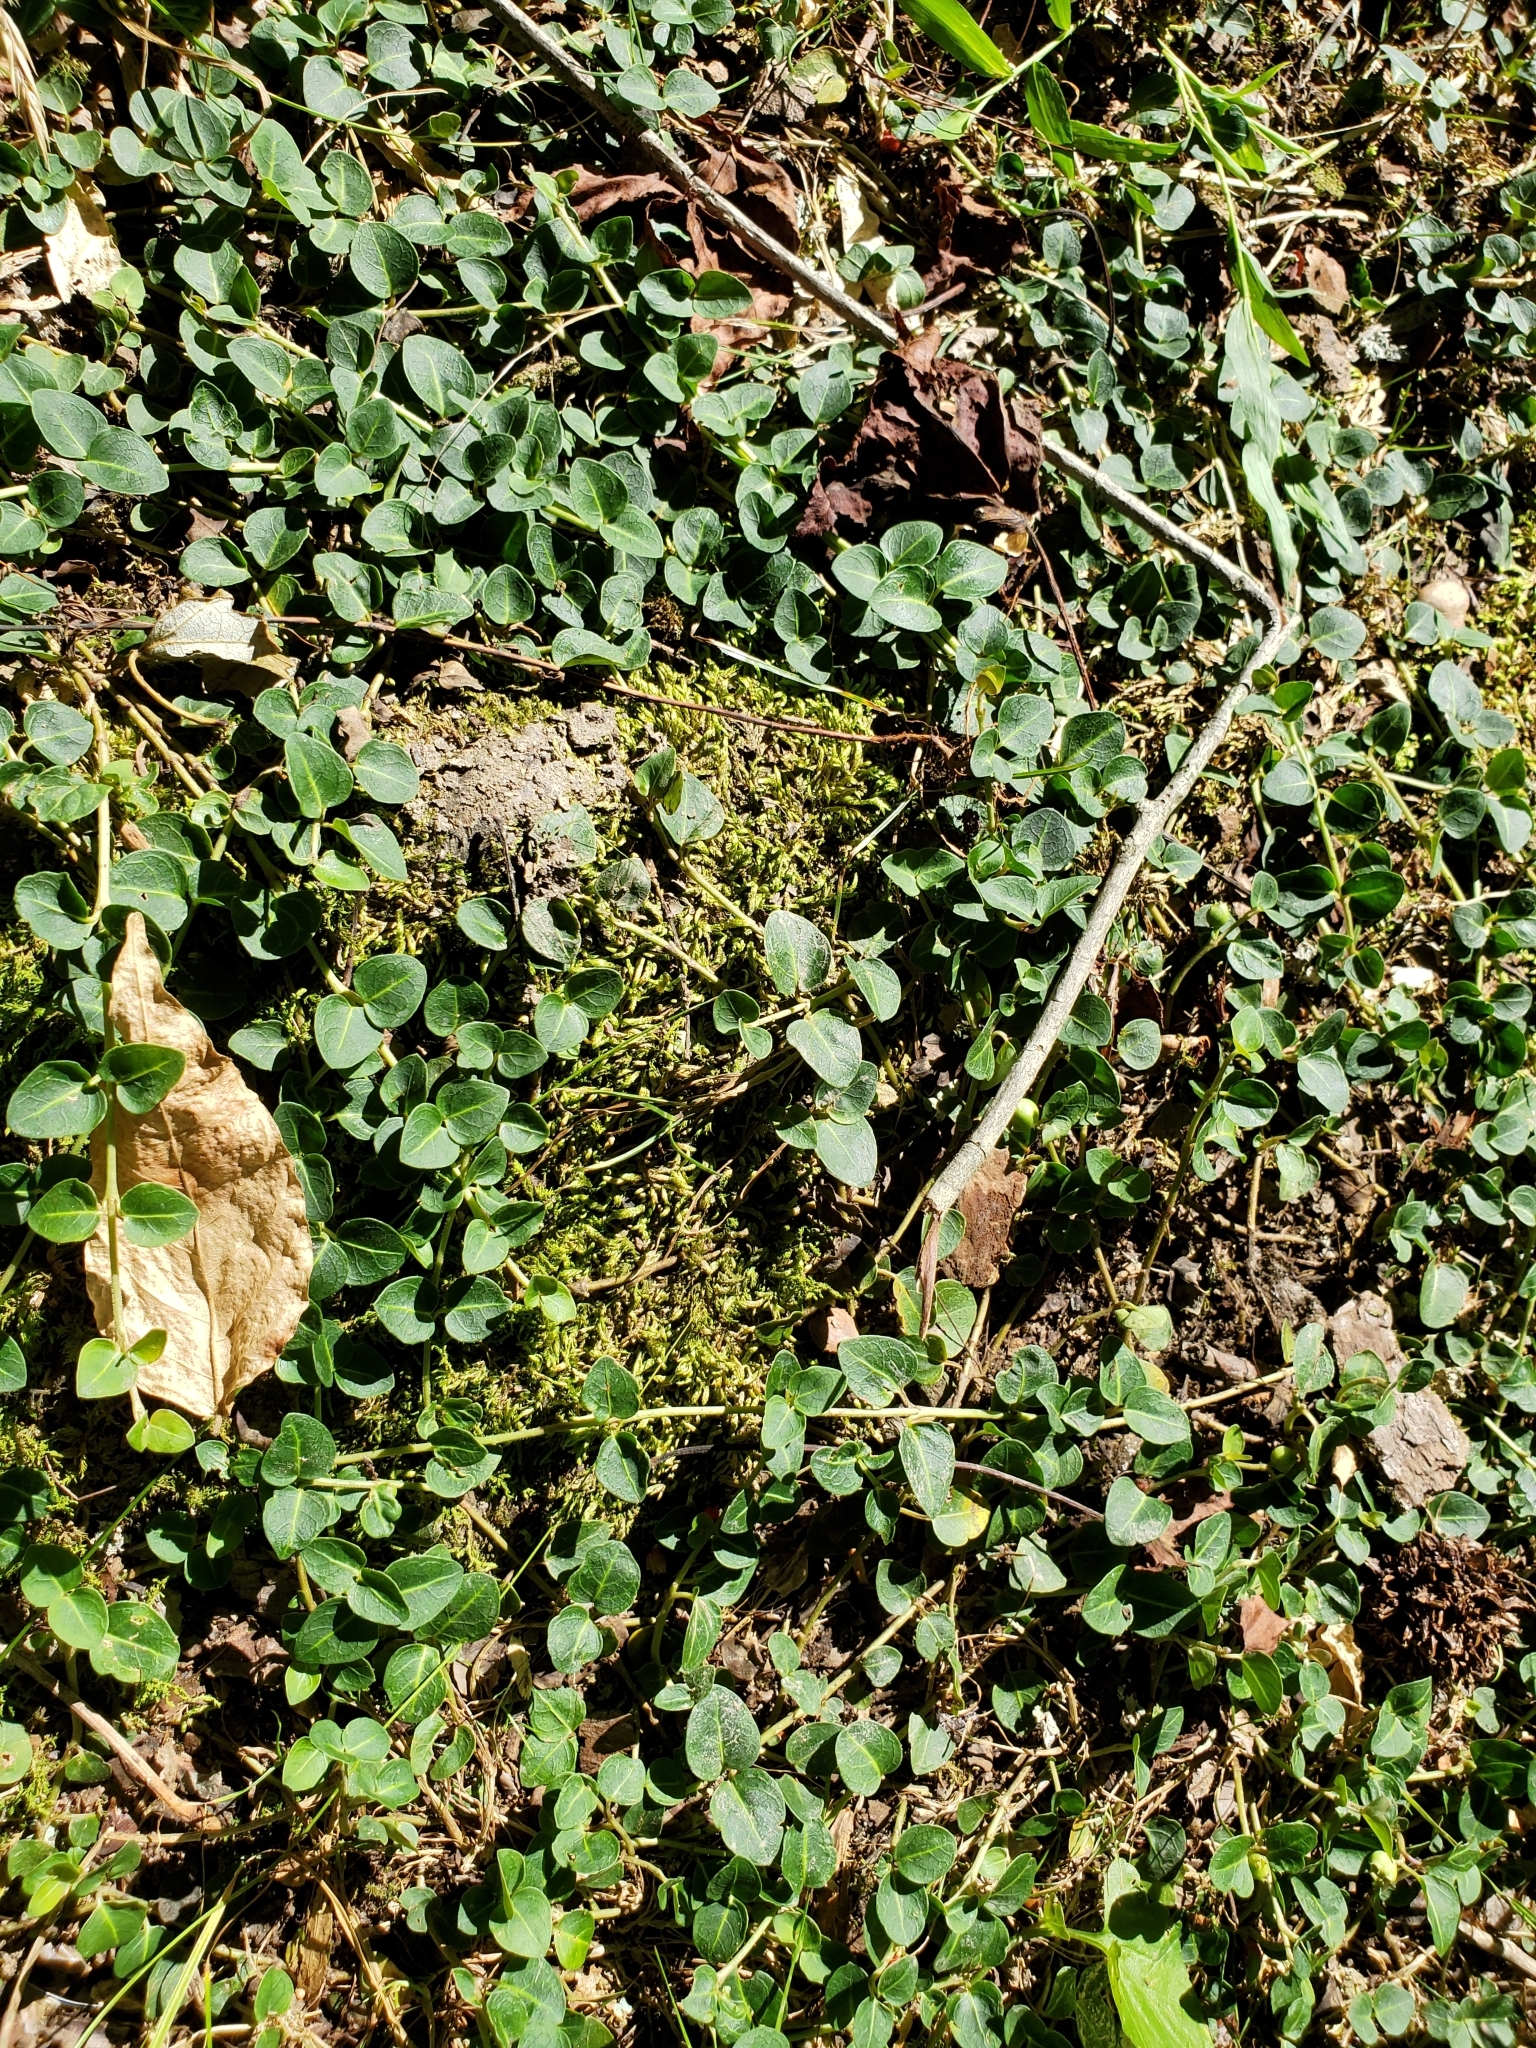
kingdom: Plantae
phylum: Tracheophyta
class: Magnoliopsida
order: Gentianales
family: Rubiaceae
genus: Mitchella
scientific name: Mitchella repens
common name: Partridge-berry
